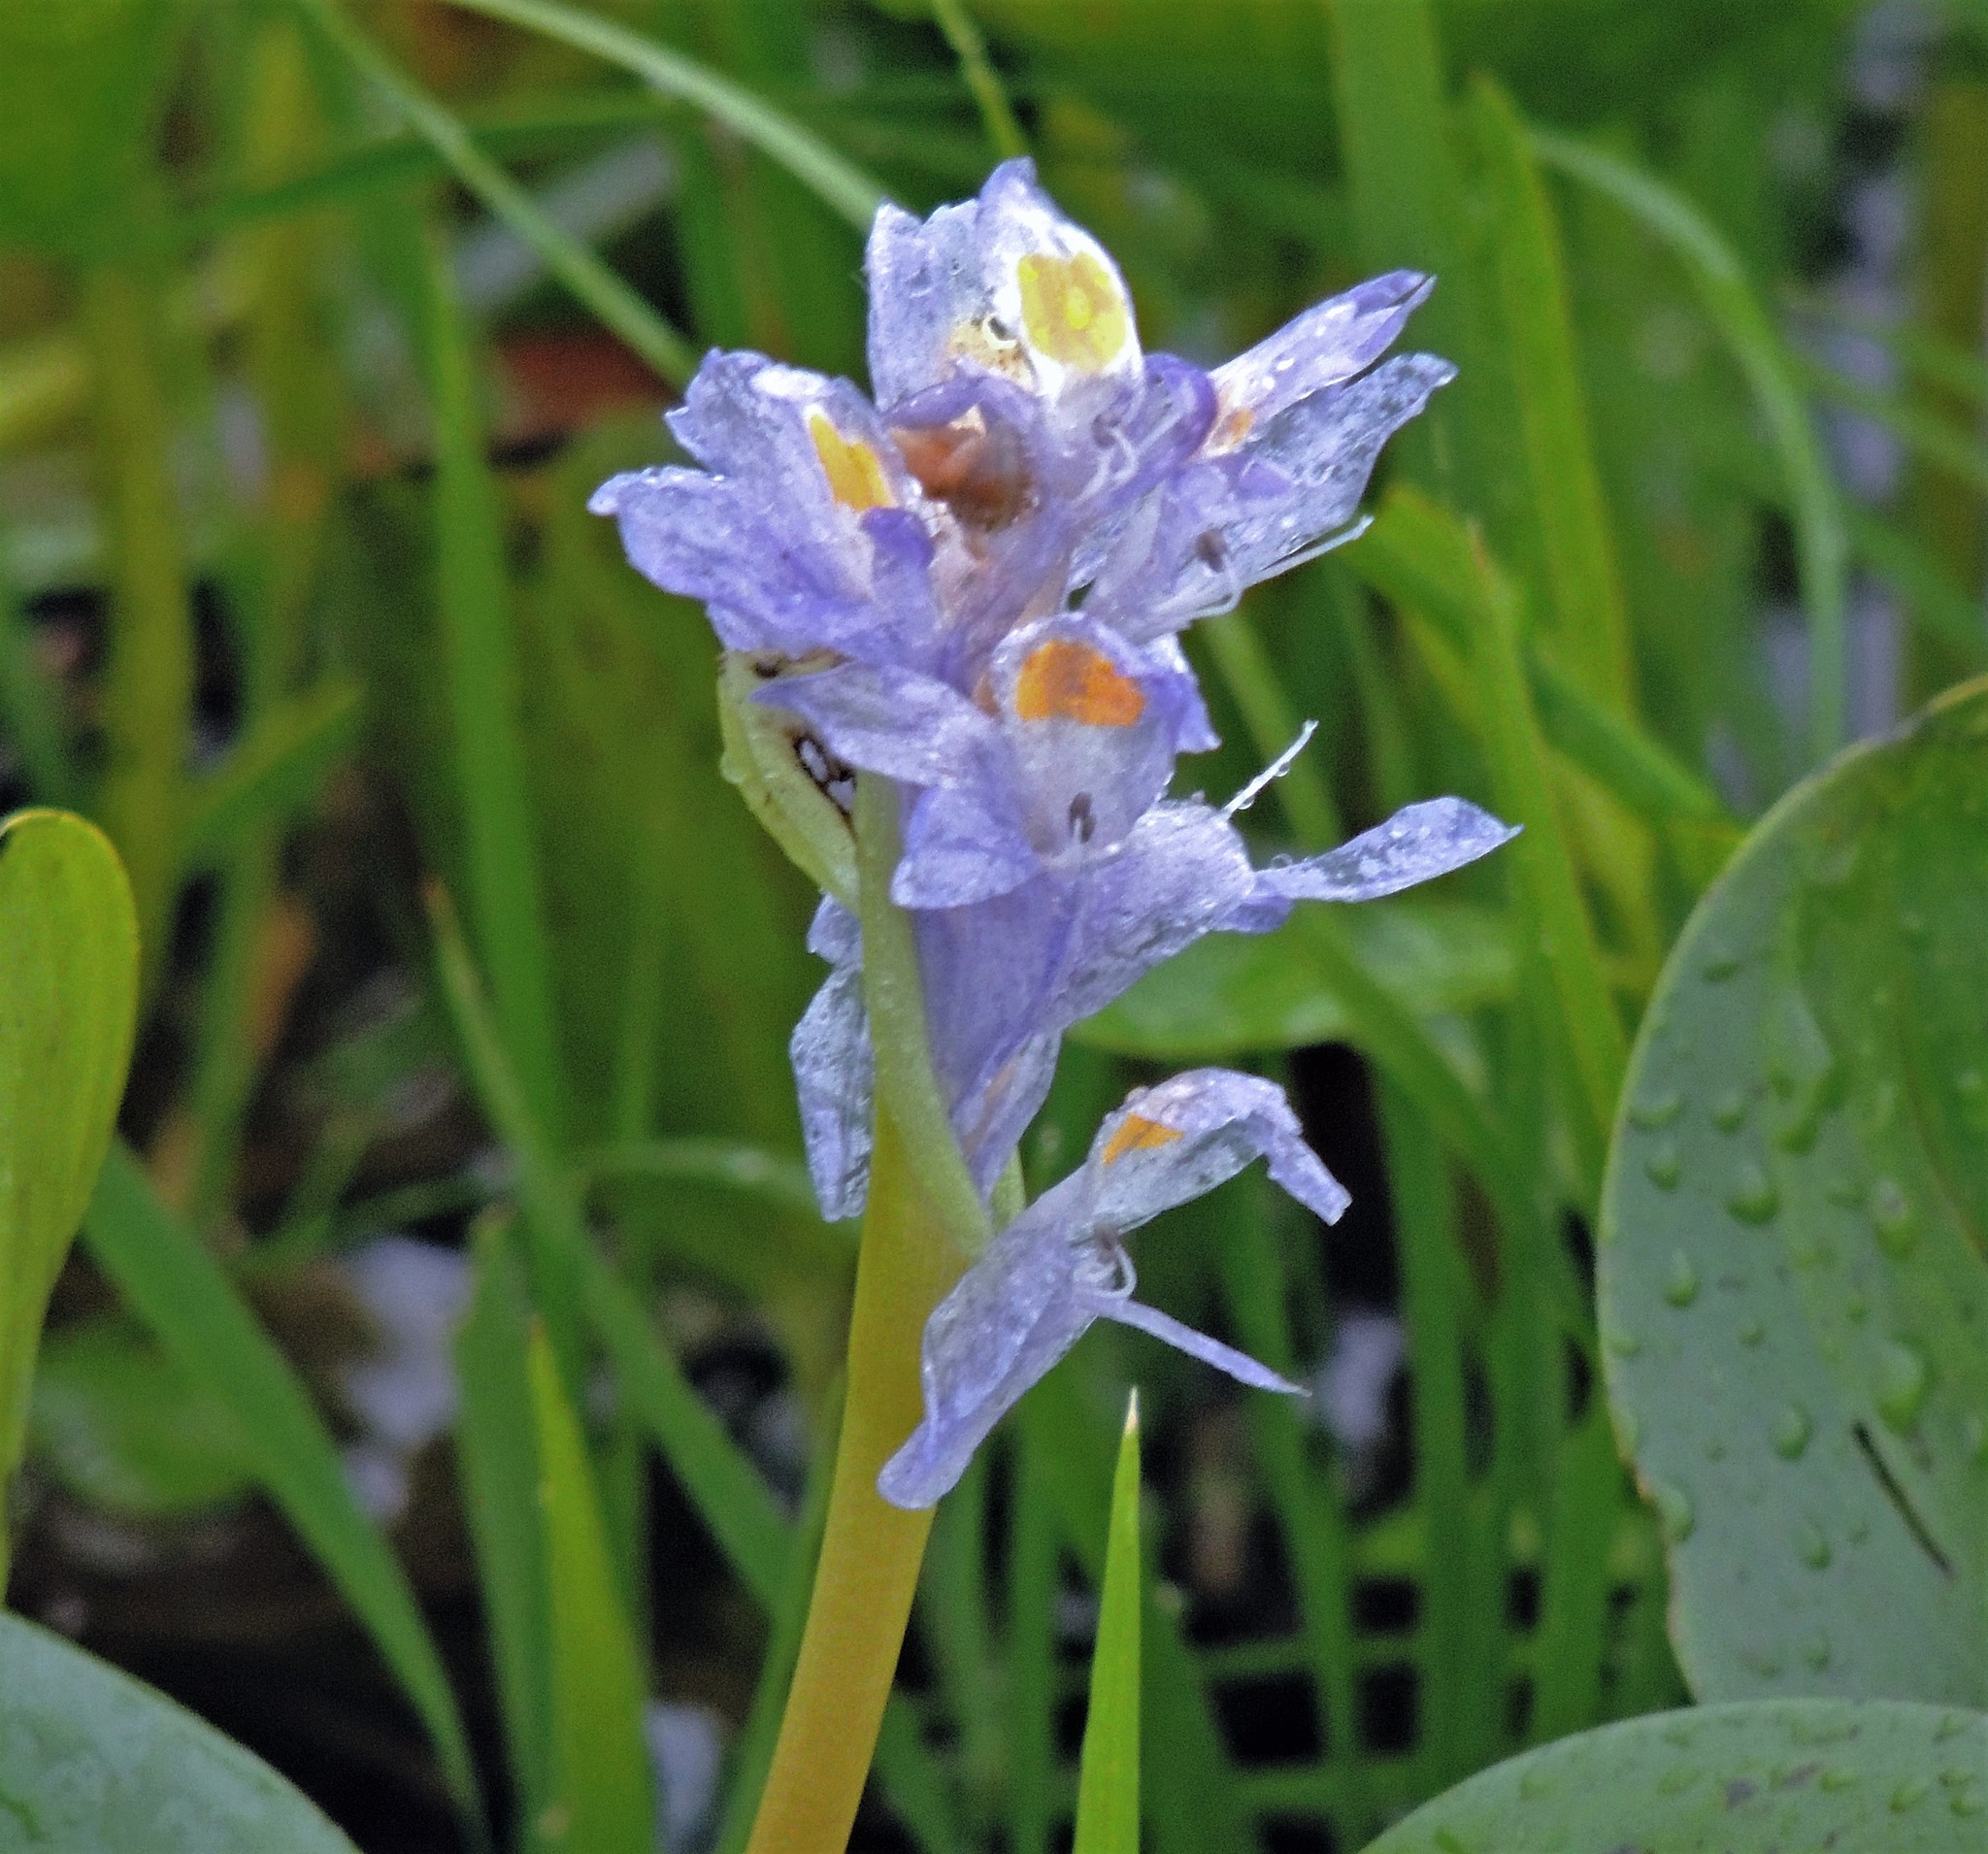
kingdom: Plantae
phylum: Tracheophyta
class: Liliopsida
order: Commelinales
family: Pontederiaceae
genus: Pontederia
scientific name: Pontederia rotundifolia
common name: Tropical pickerel-weed
